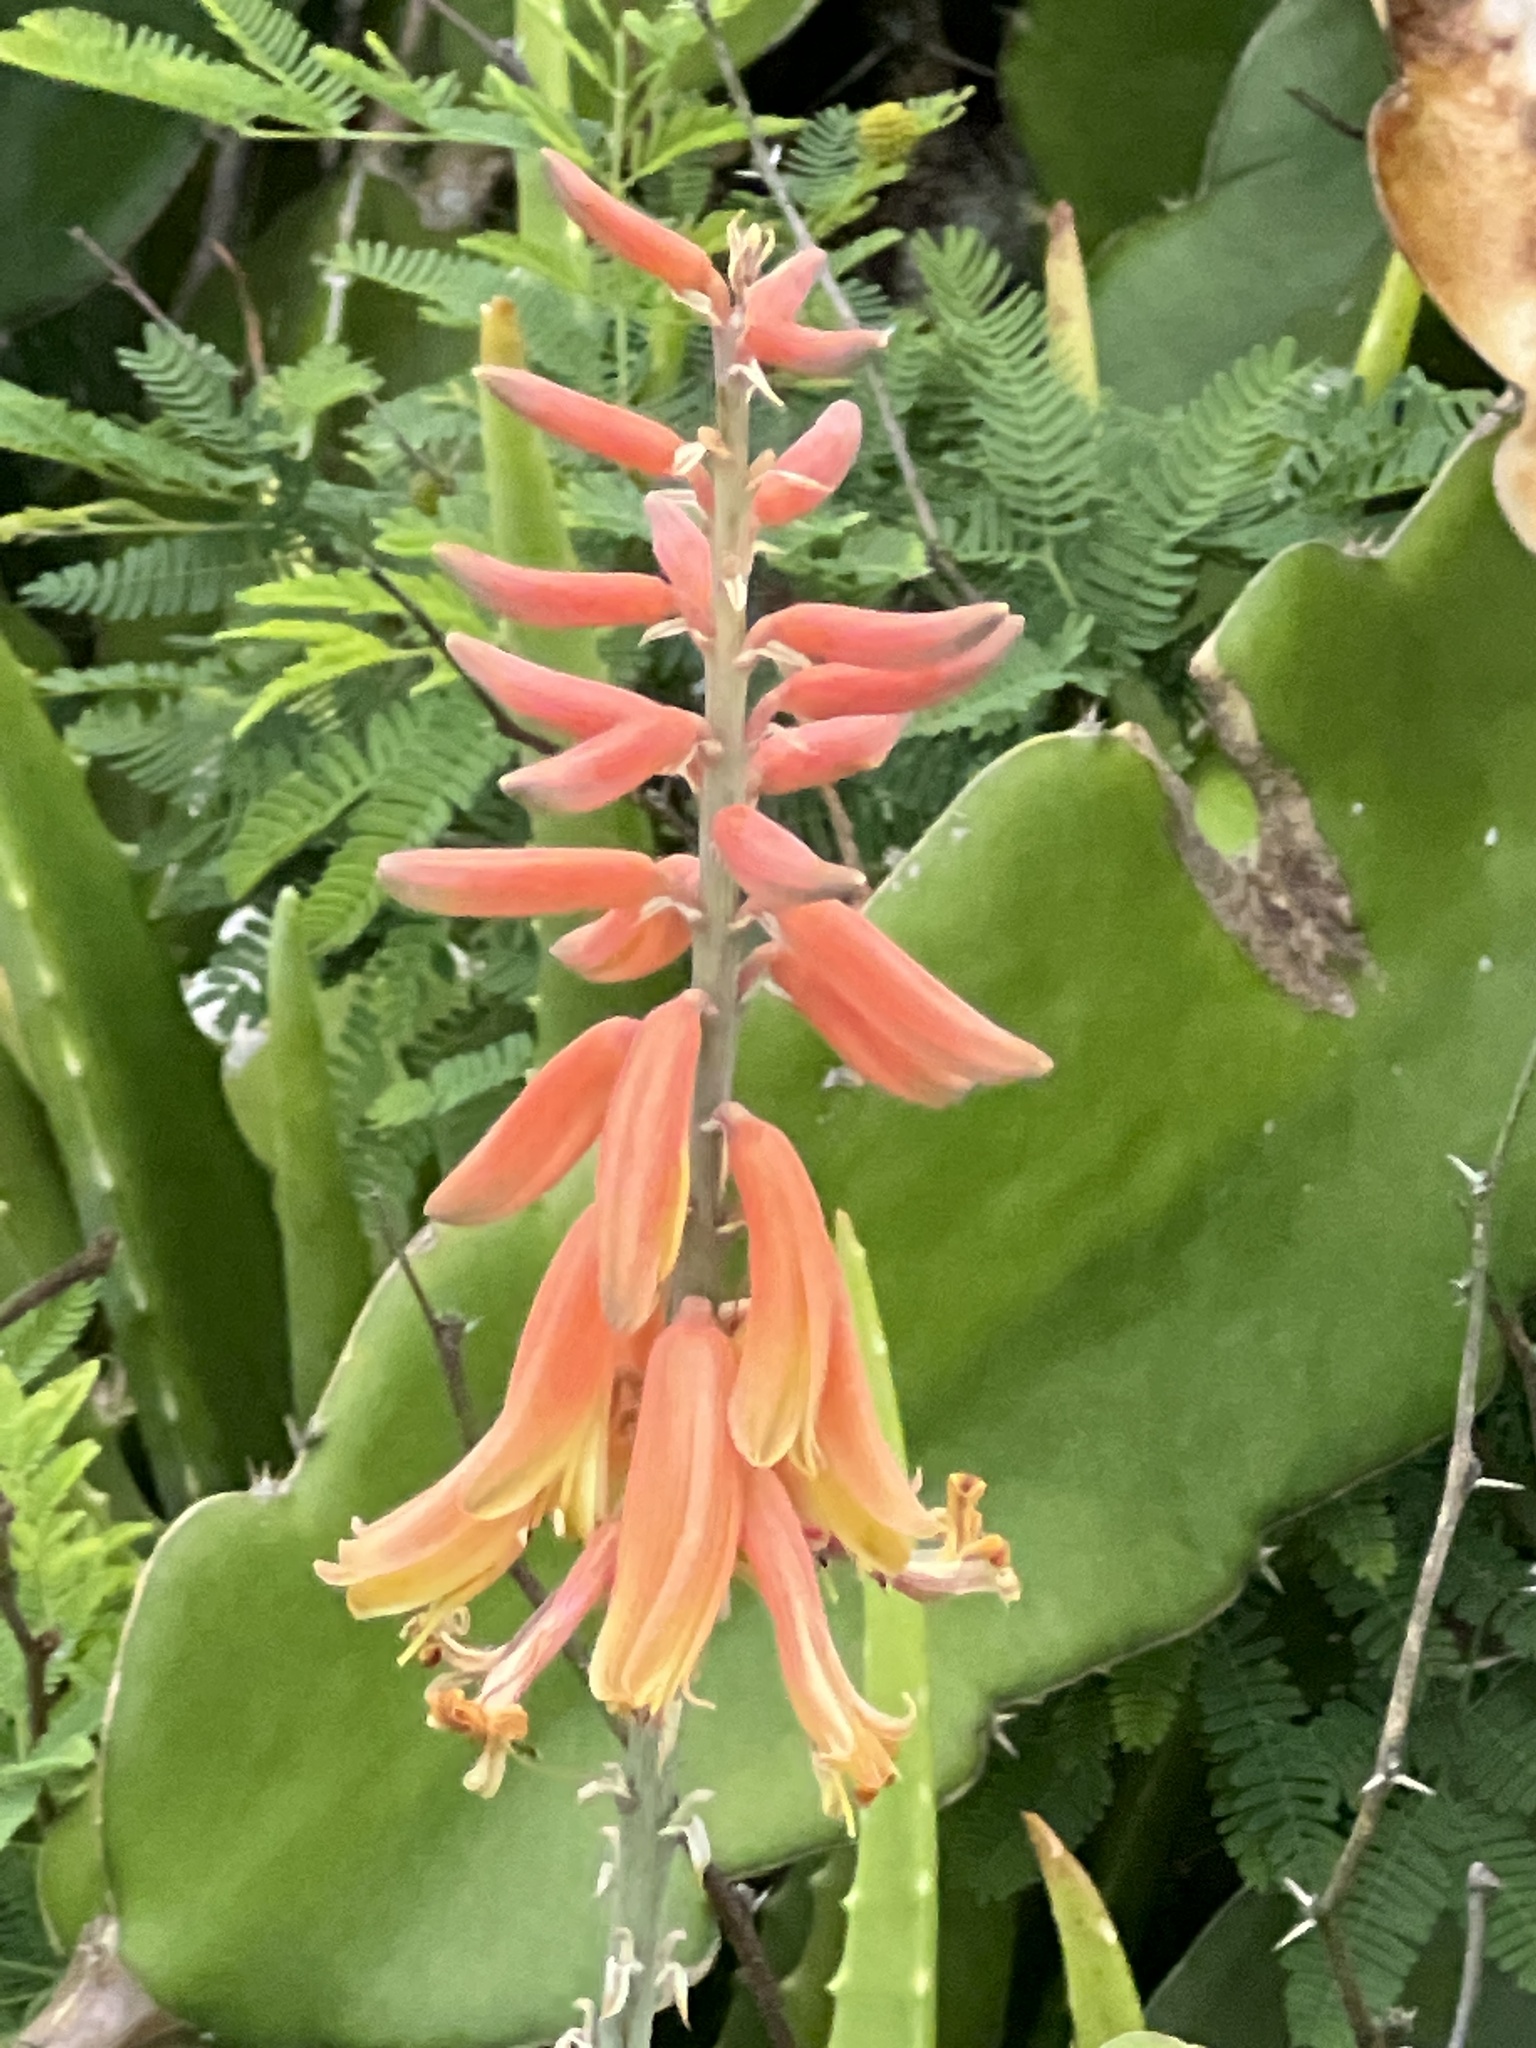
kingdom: Plantae
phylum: Tracheophyta
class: Liliopsida
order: Asparagales
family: Asphodelaceae
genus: Aloe
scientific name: Aloe vera
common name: Barbados aloe
